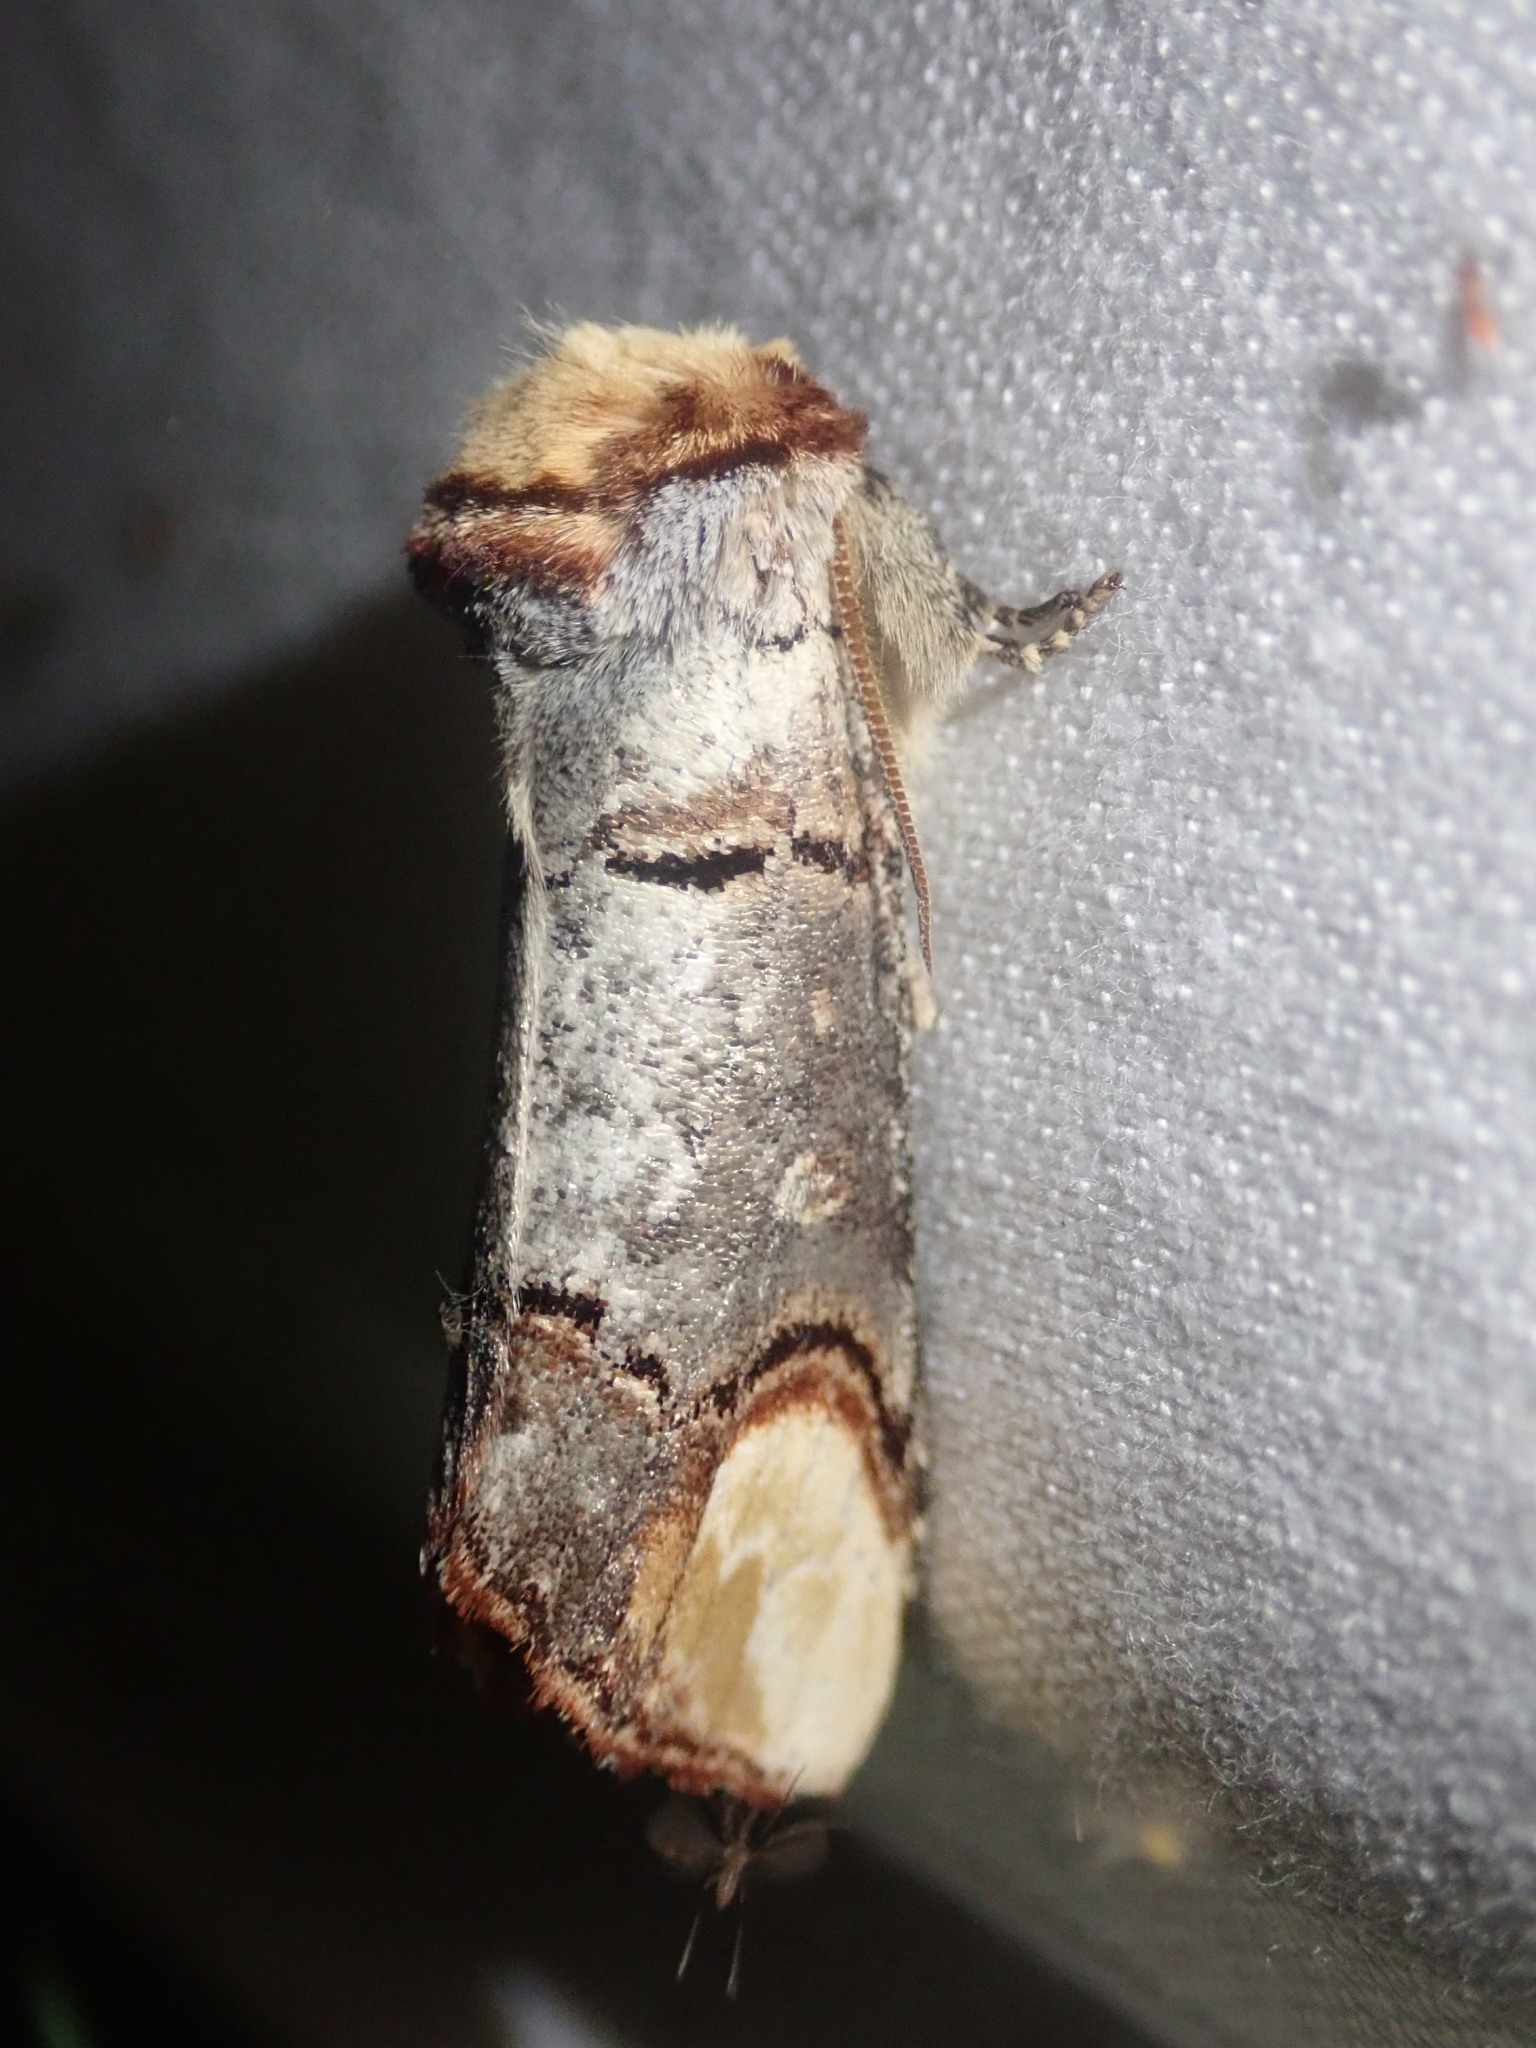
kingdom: Animalia
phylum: Arthropoda
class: Insecta
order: Lepidoptera
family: Notodontidae
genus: Phalera
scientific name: Phalera bucephala
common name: Buff-tip
